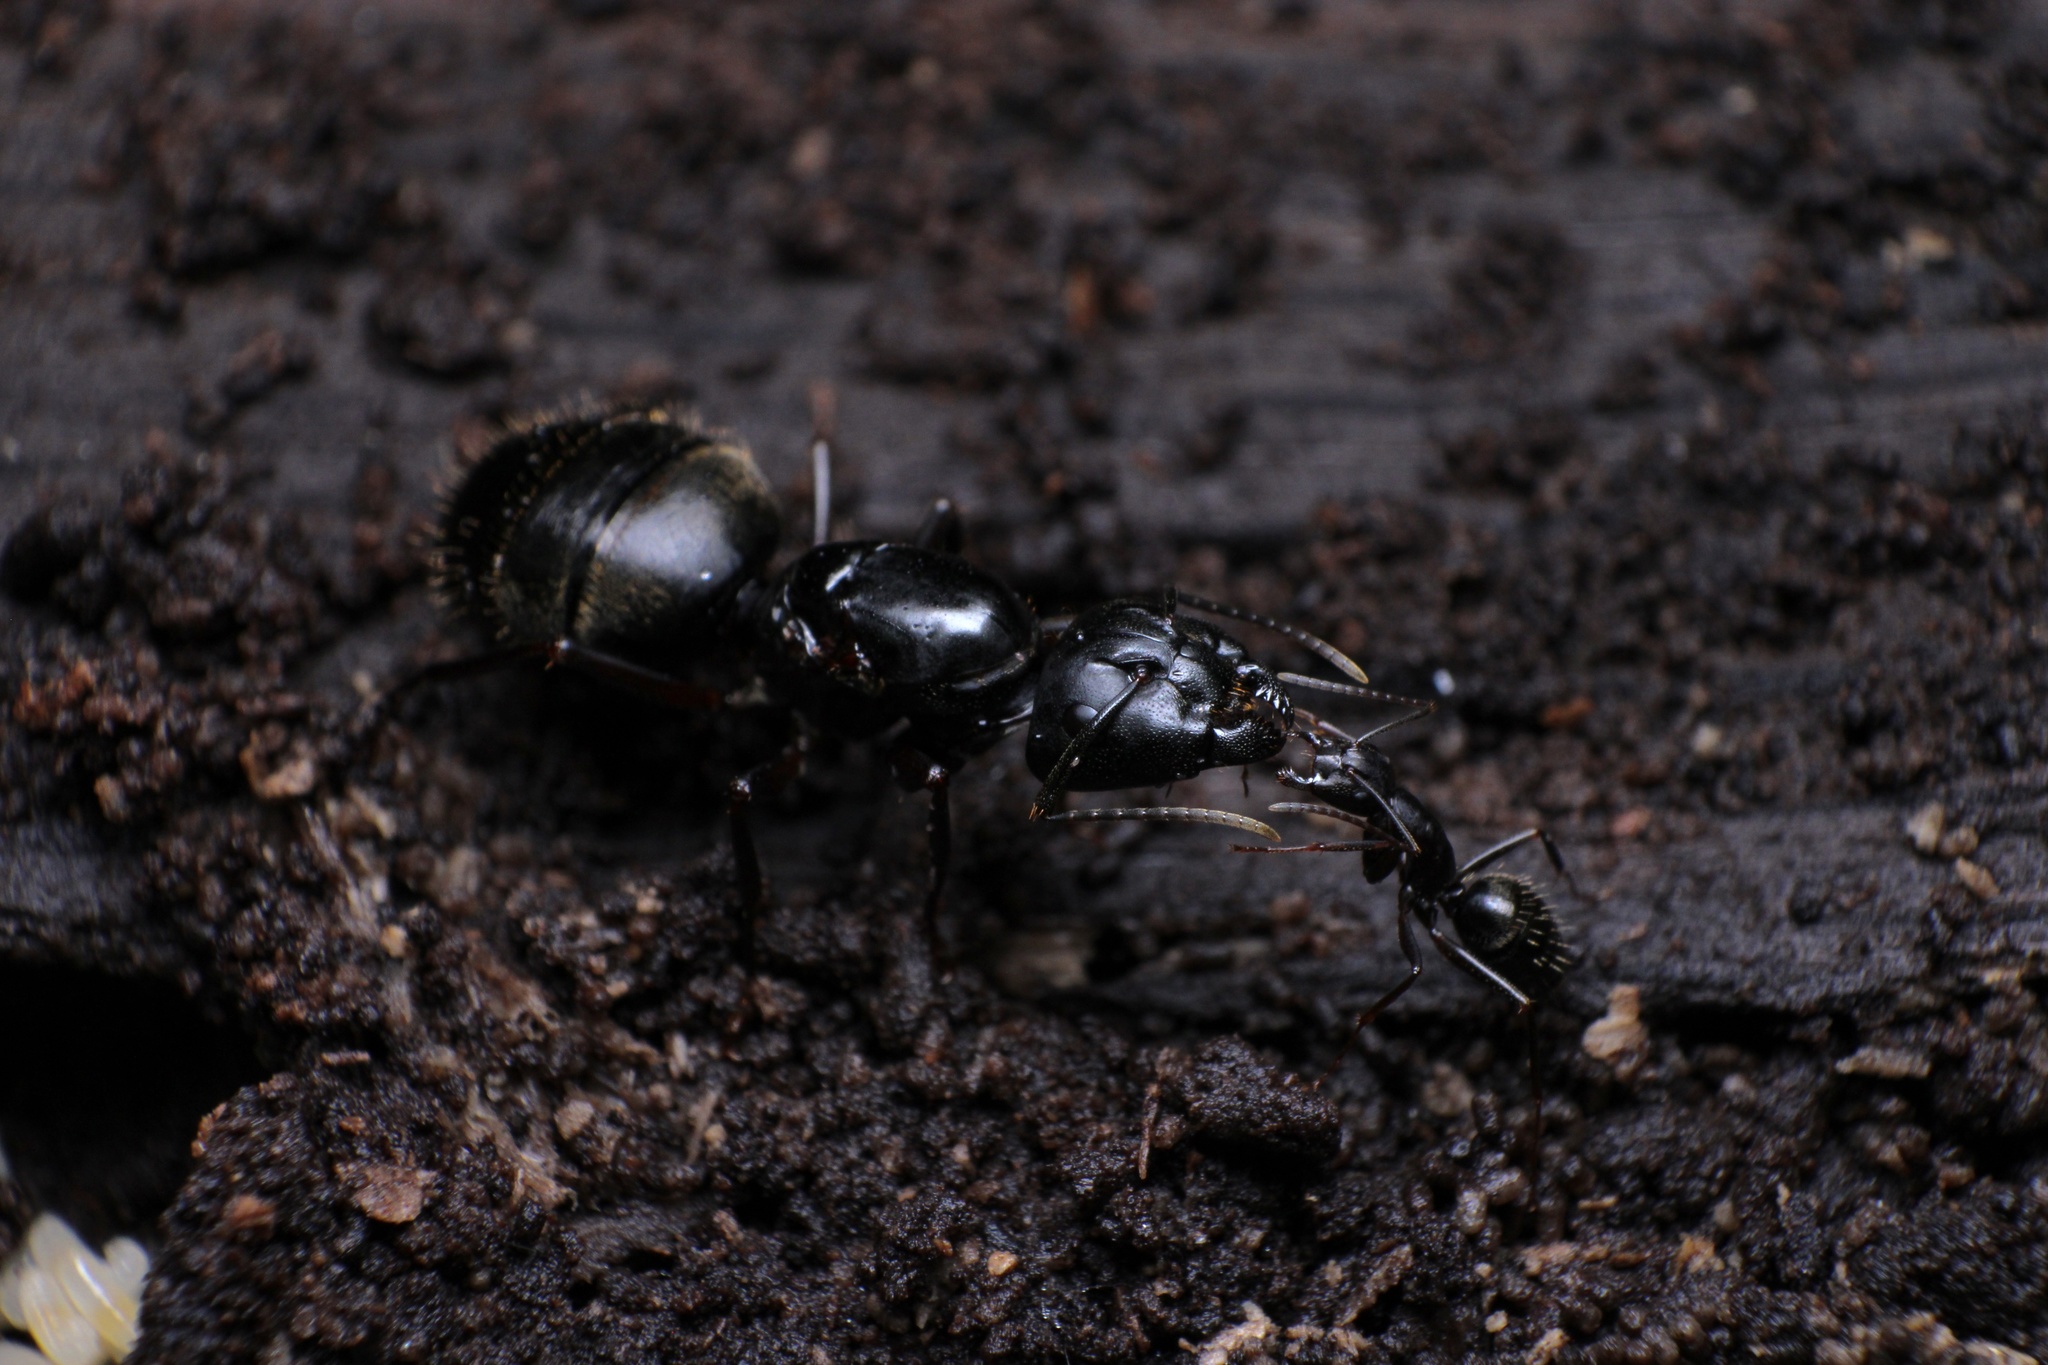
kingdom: Animalia
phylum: Arthropoda
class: Insecta
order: Hymenoptera
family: Formicidae
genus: Camponotus
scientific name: Camponotus pennsylvanicus
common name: Black carpenter ant
